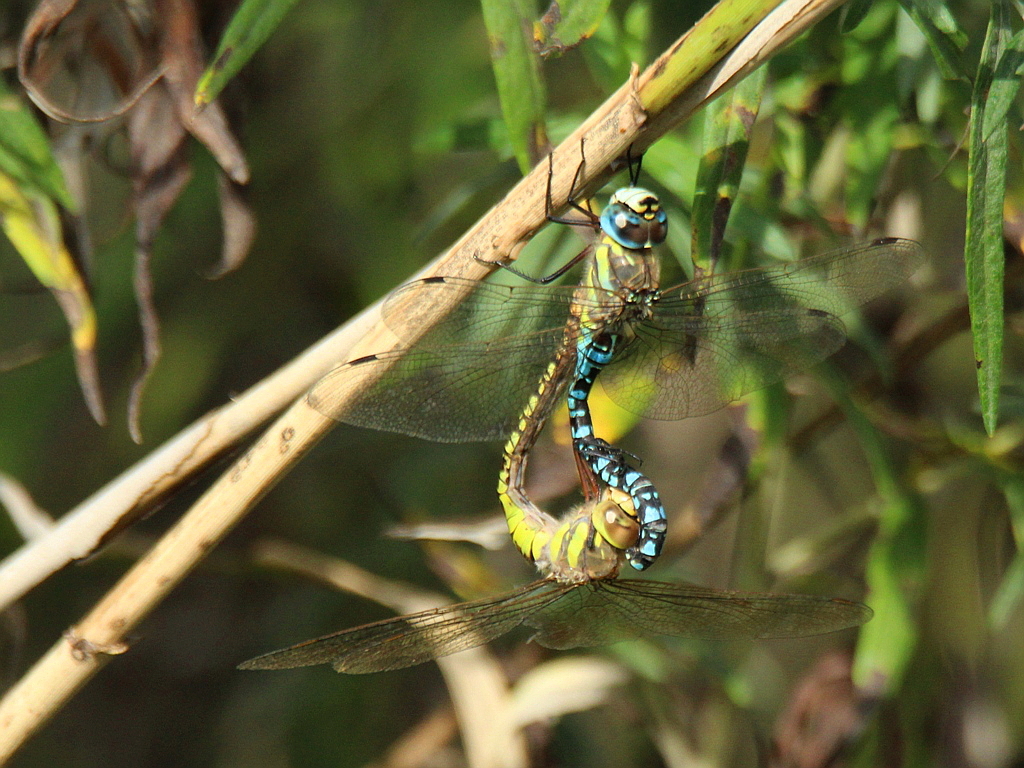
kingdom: Animalia
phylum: Arthropoda
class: Insecta
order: Odonata
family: Aeshnidae
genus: Aeshna
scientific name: Aeshna soneharai
